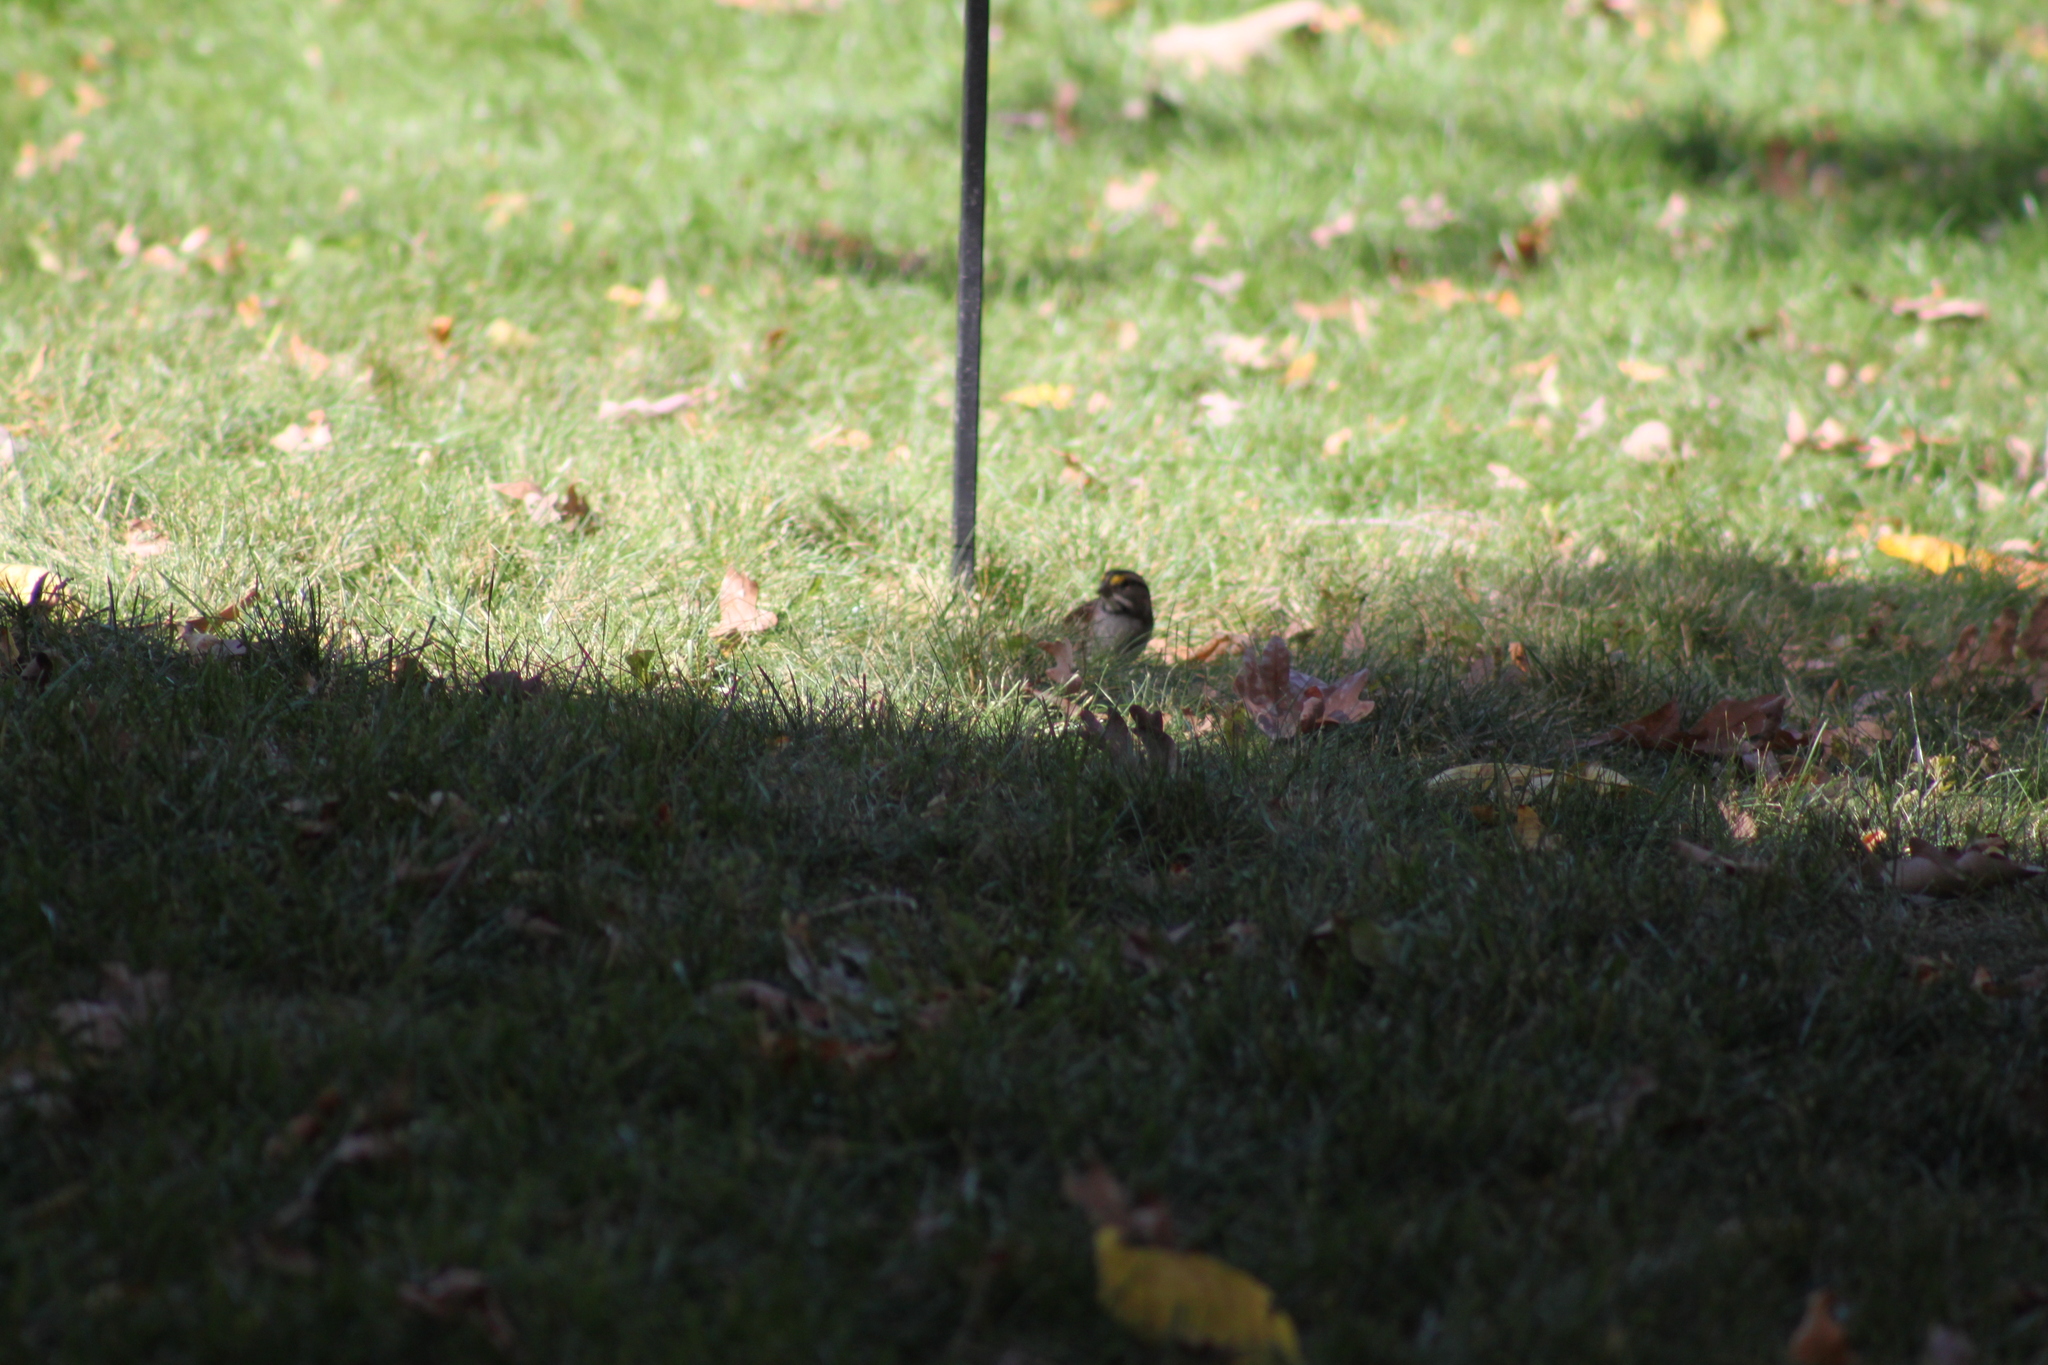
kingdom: Animalia
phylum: Chordata
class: Aves
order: Passeriformes
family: Passerellidae
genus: Zonotrichia
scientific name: Zonotrichia albicollis
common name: White-throated sparrow
